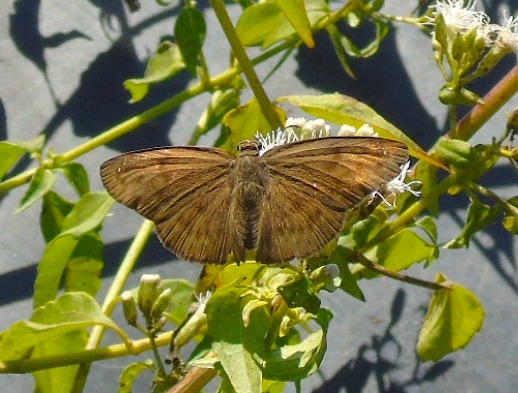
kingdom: Animalia
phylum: Arthropoda
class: Insecta
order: Lepidoptera
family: Hesperiidae
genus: Pyrginae
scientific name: Pyrginae
